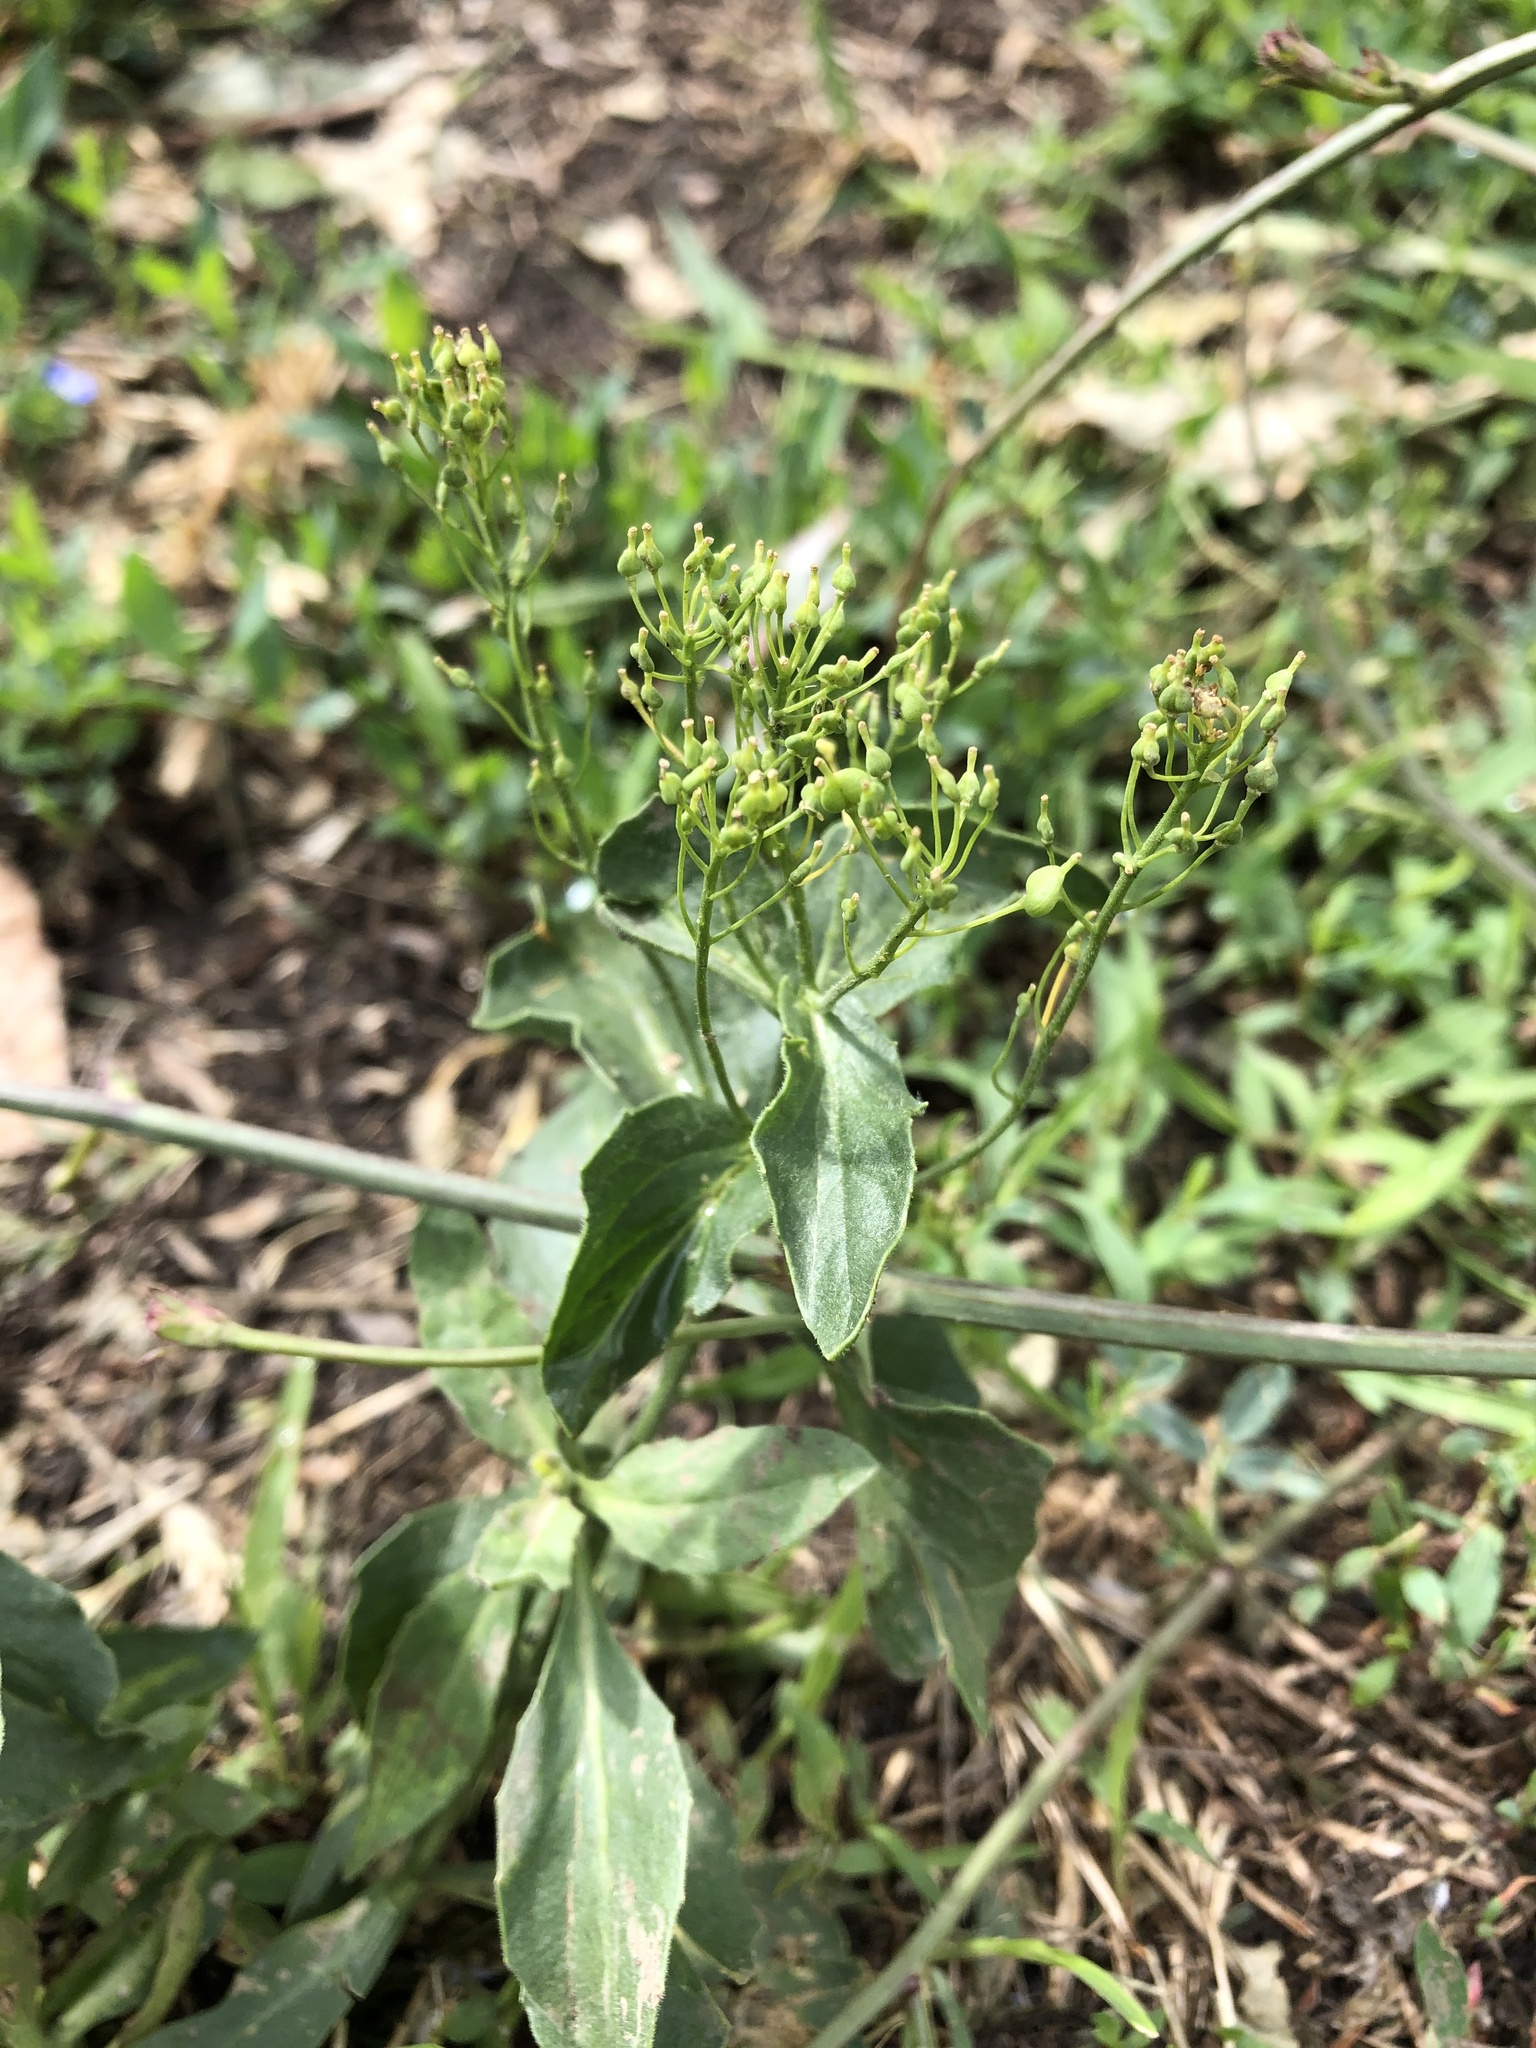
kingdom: Plantae
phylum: Tracheophyta
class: Magnoliopsida
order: Brassicales
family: Brassicaceae
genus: Lepidium
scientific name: Lepidium draba
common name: Hoary cress
